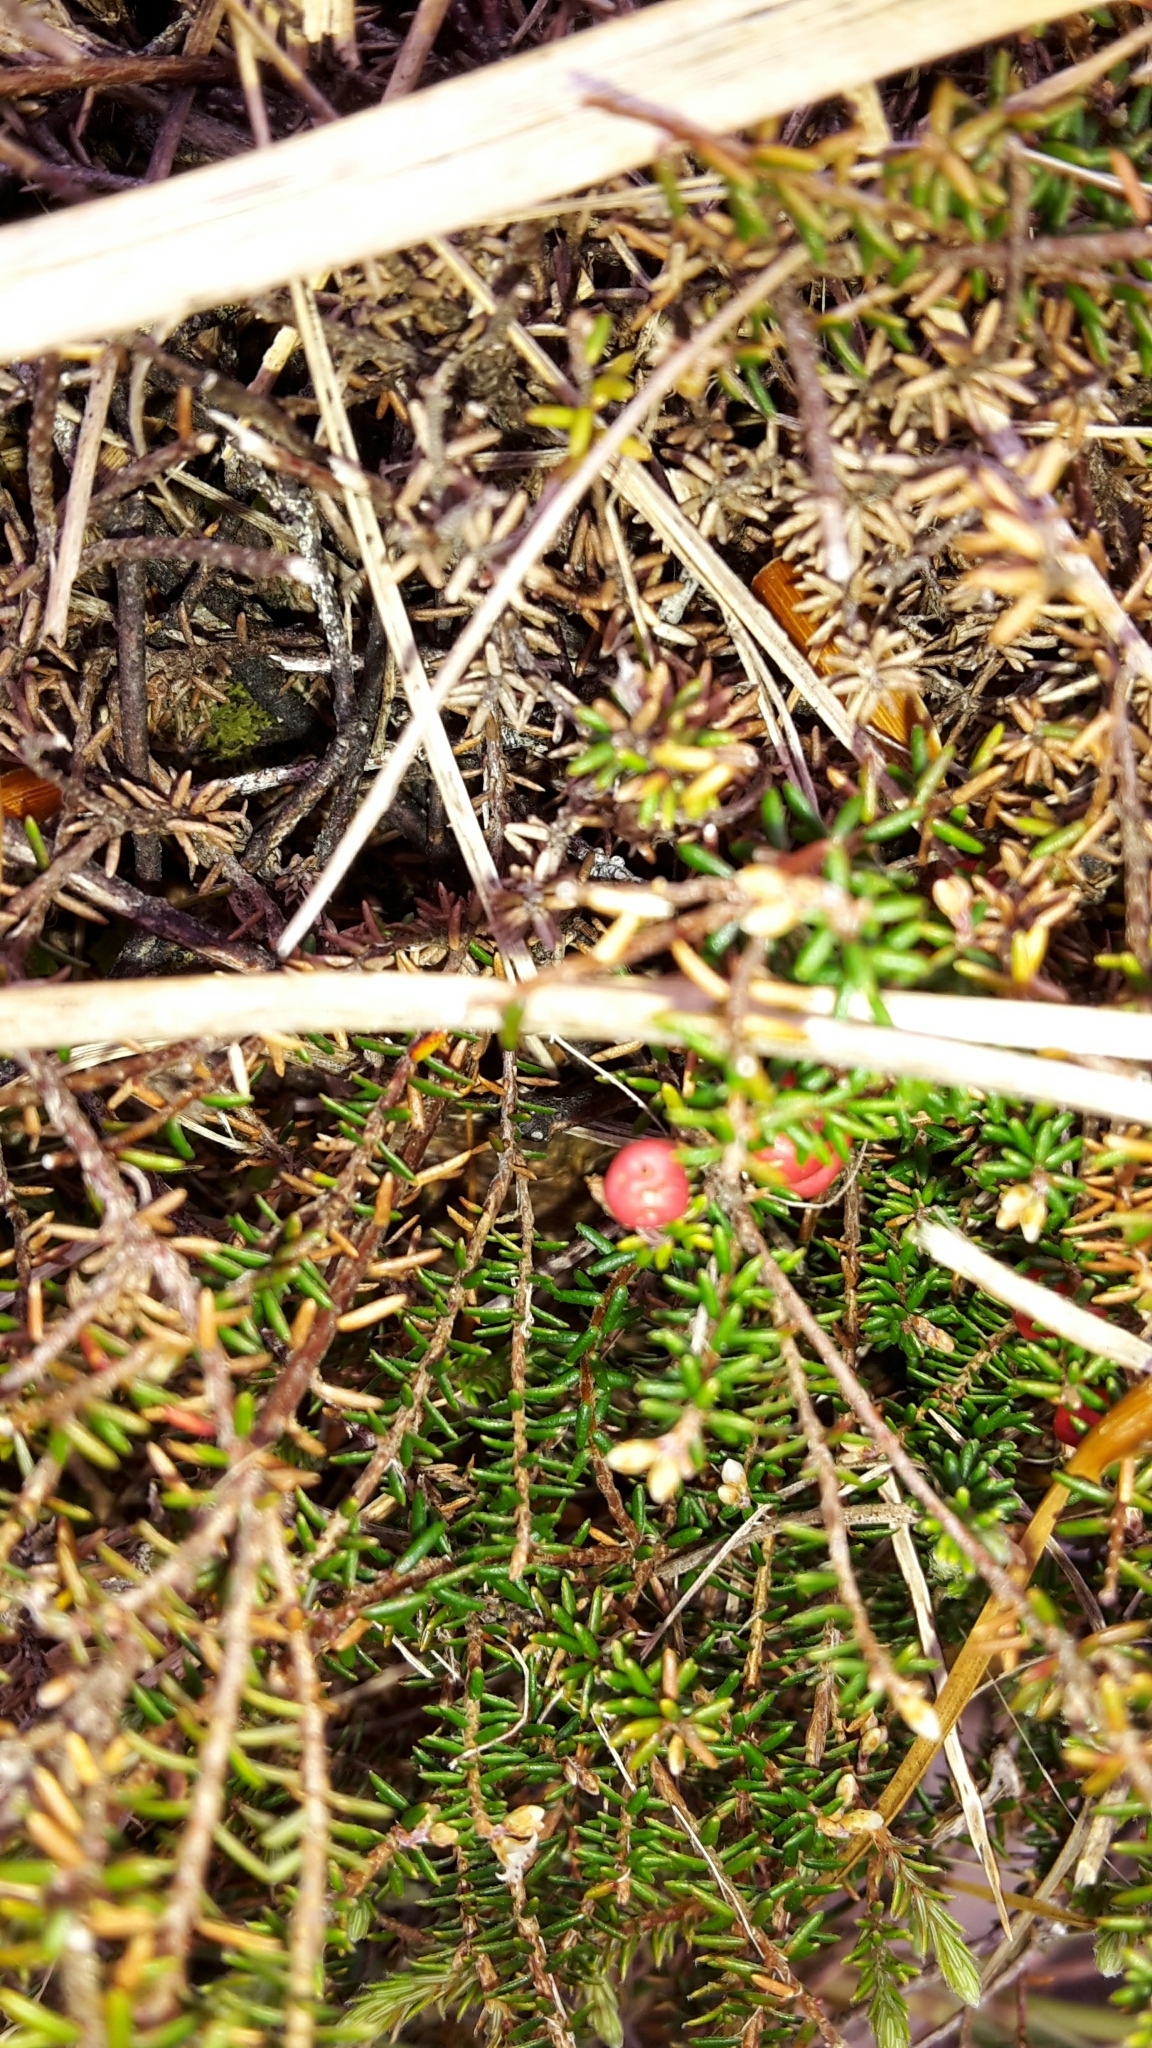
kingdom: Plantae
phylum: Tracheophyta
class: Magnoliopsida
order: Ericales
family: Ericaceae
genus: Androstoma
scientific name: Androstoma empetrifolia
